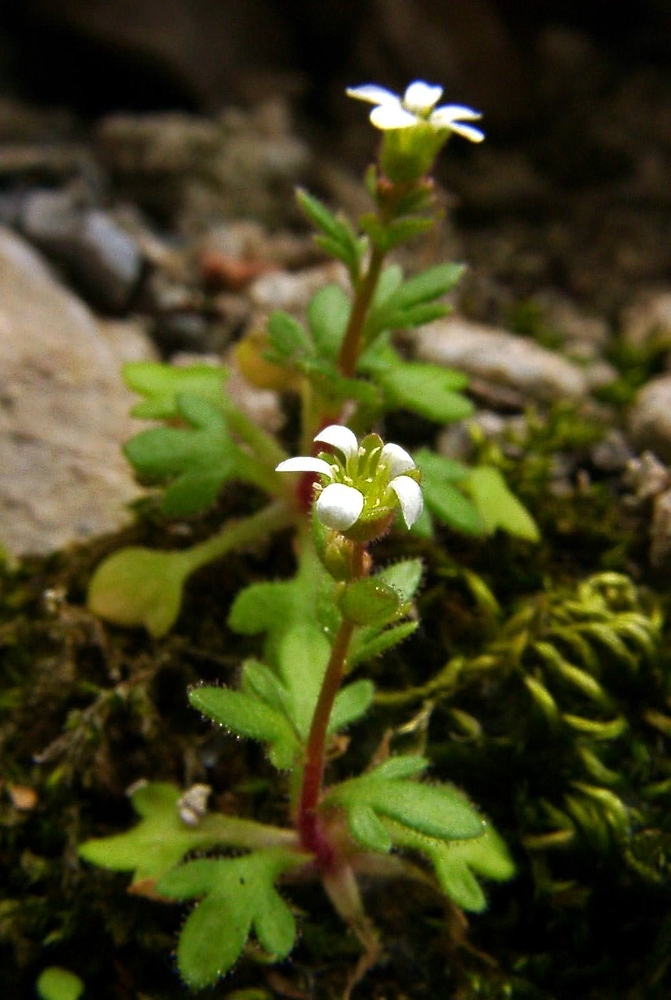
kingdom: Plantae
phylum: Tracheophyta
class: Magnoliopsida
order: Saxifragales
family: Saxifragaceae
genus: Saxifraga
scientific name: Saxifraga tridactylites
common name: Rue-leaved saxifrage
